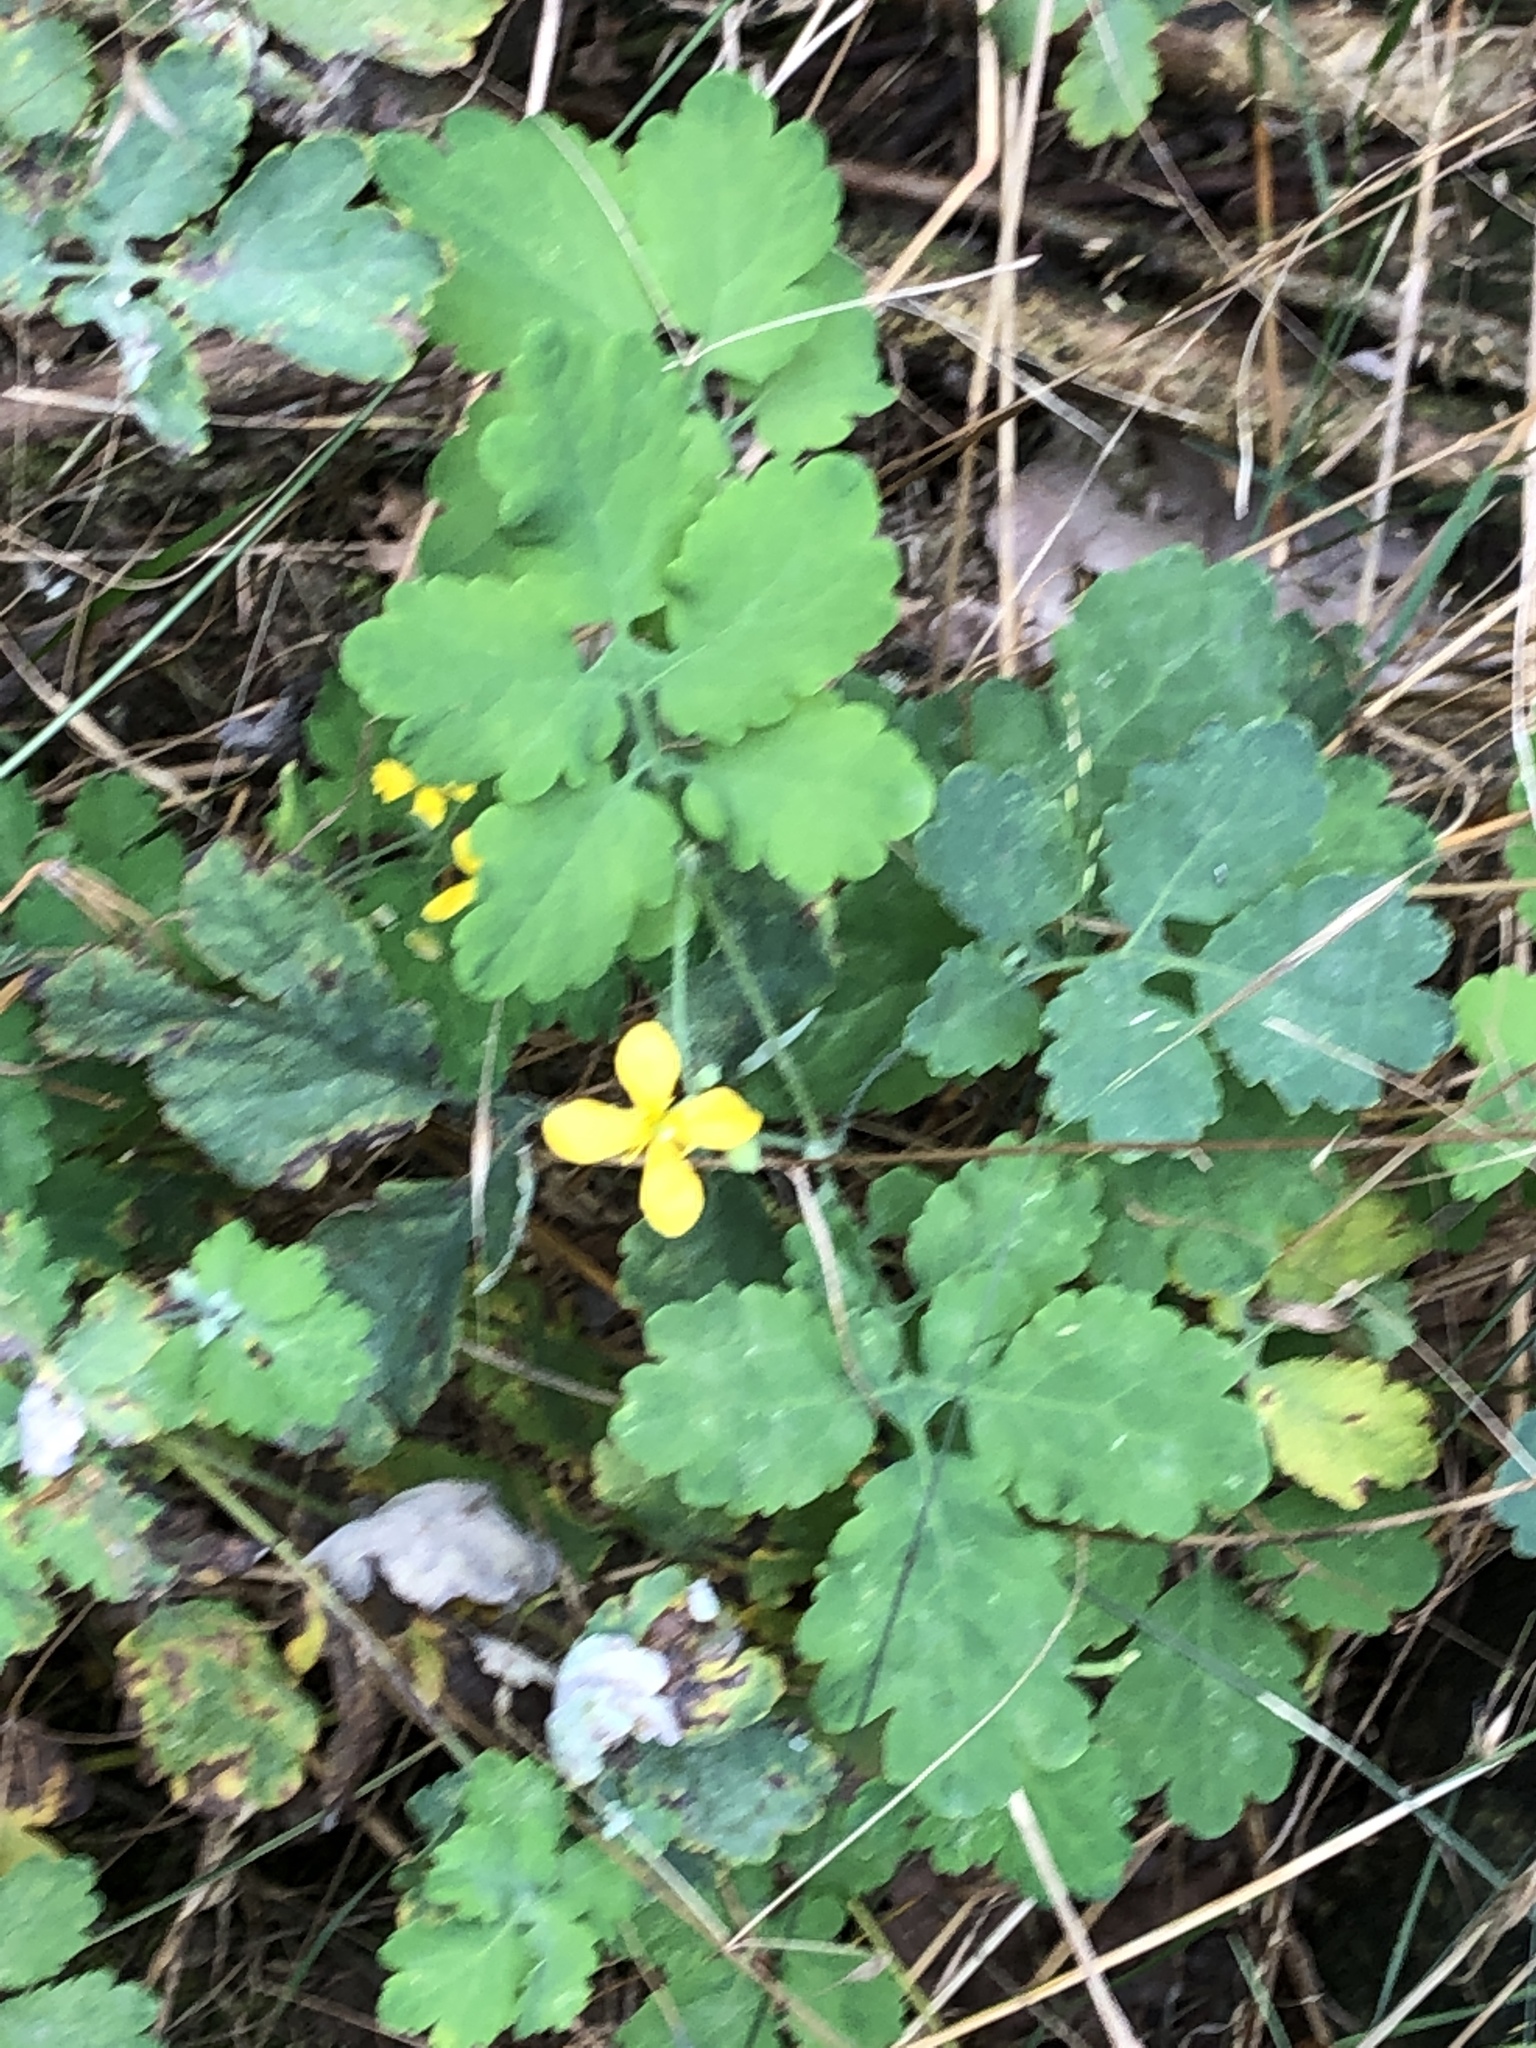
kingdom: Plantae
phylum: Tracheophyta
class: Magnoliopsida
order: Ranunculales
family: Papaveraceae
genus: Chelidonium
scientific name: Chelidonium majus
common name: Greater celandine
